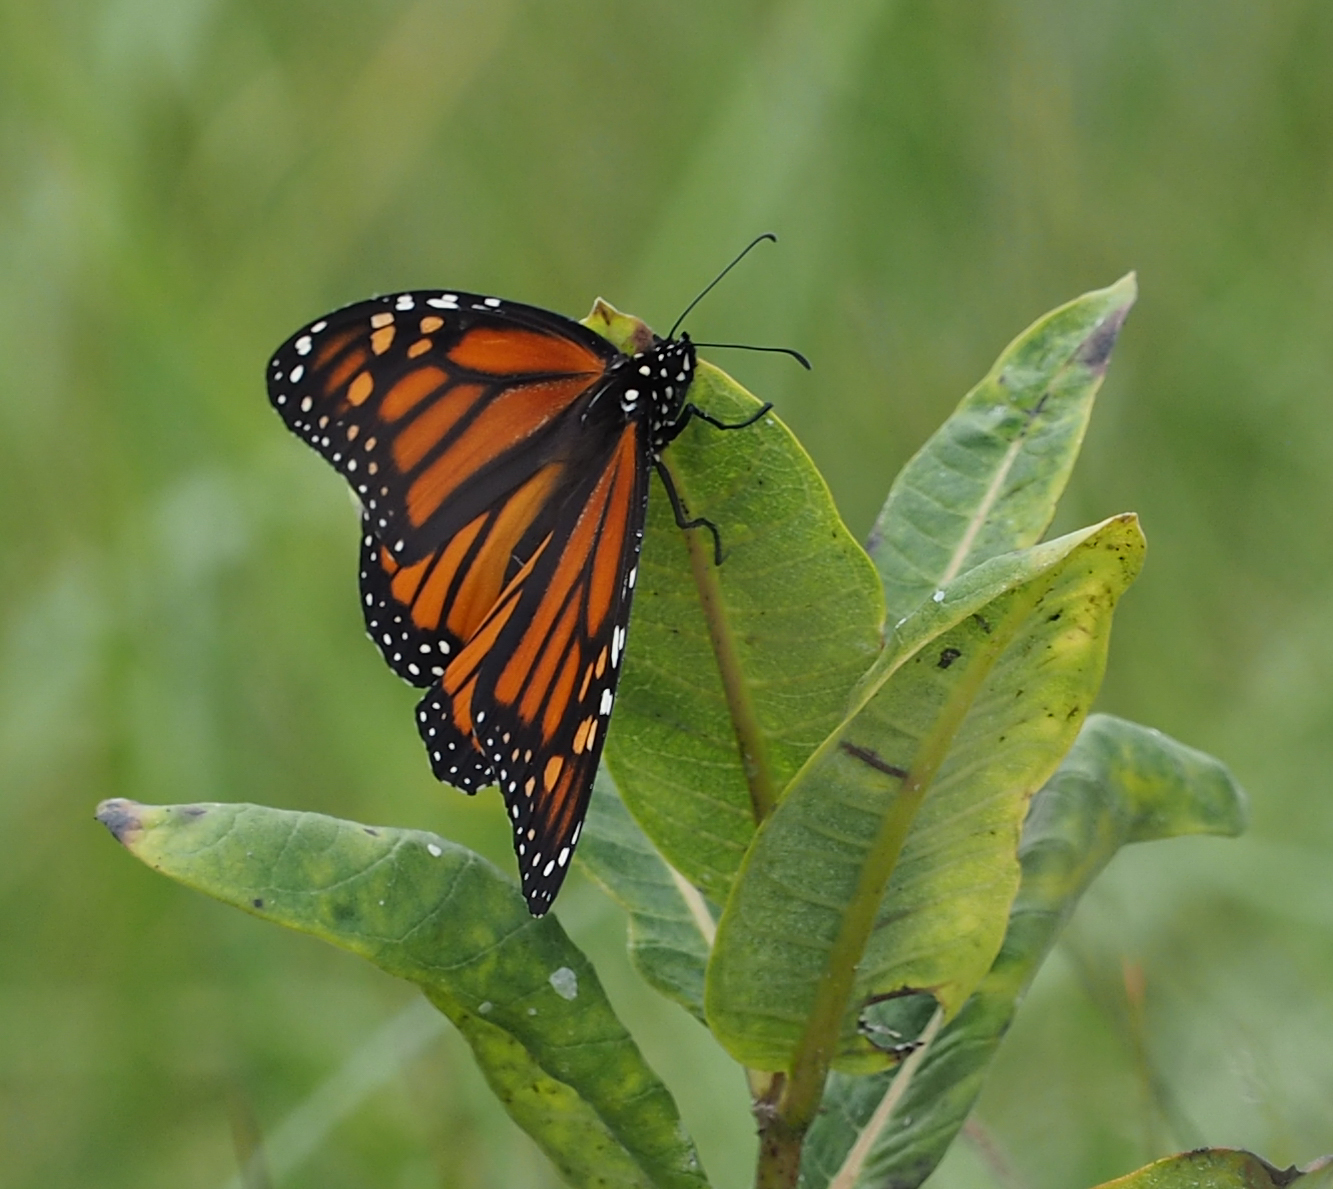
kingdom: Animalia
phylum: Arthropoda
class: Insecta
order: Lepidoptera
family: Nymphalidae
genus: Danaus
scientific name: Danaus plexippus
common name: Monarch
